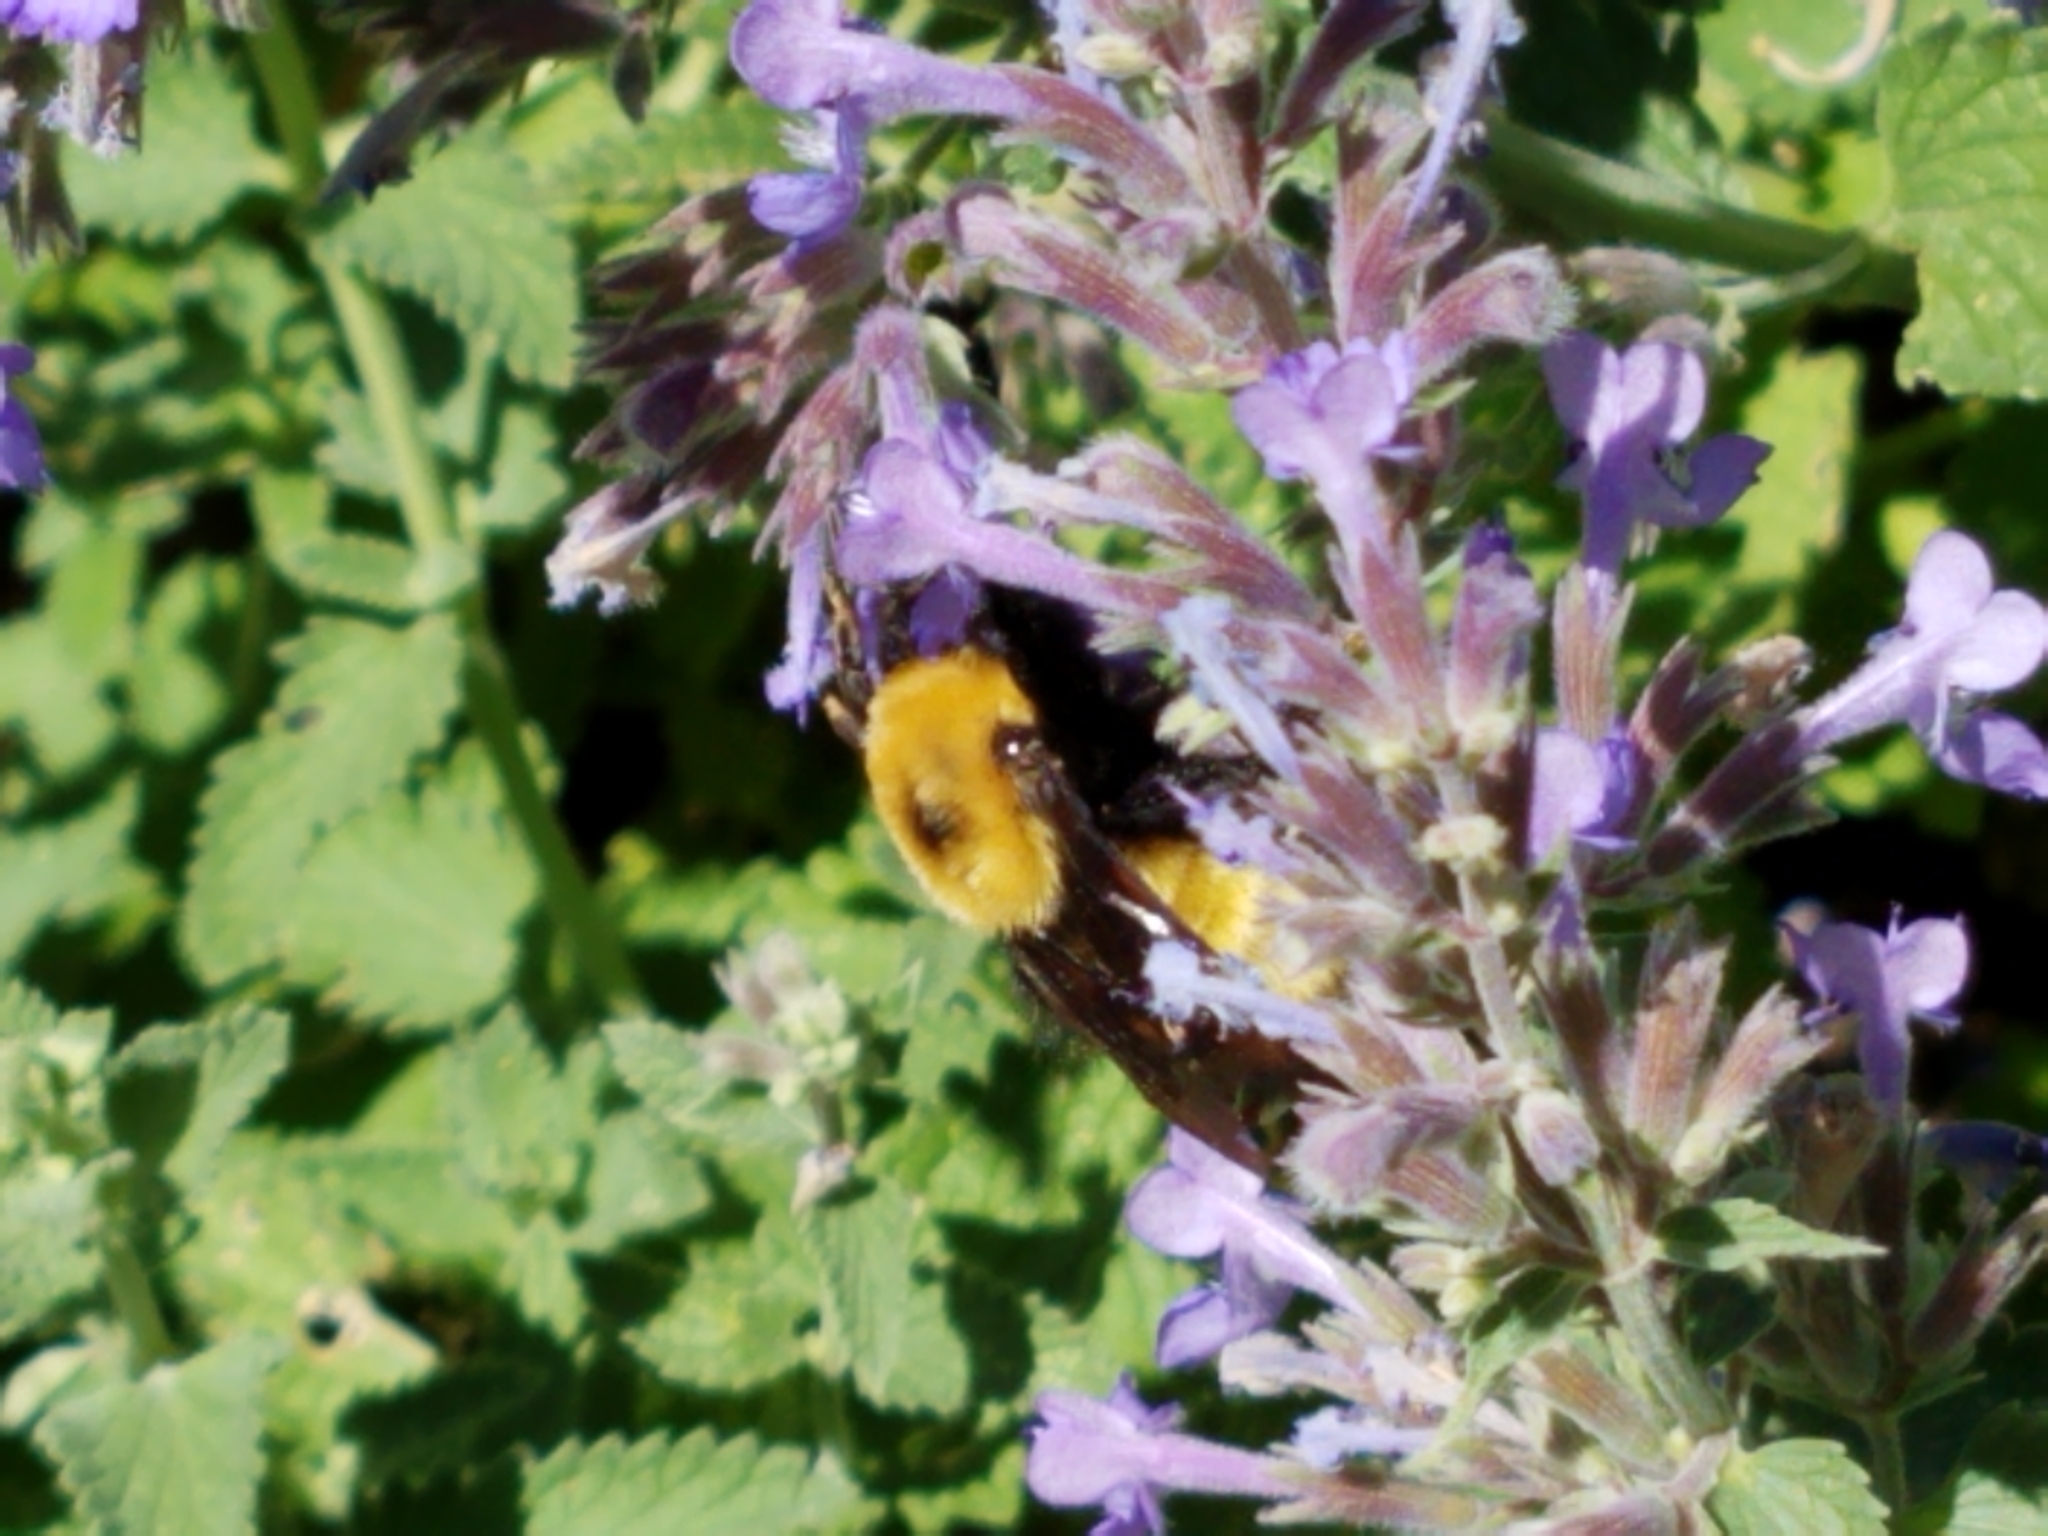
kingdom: Animalia
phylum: Arthropoda
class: Insecta
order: Hymenoptera
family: Apidae
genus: Bombus
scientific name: Bombus nevadensis
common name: Nevada bumble bee
